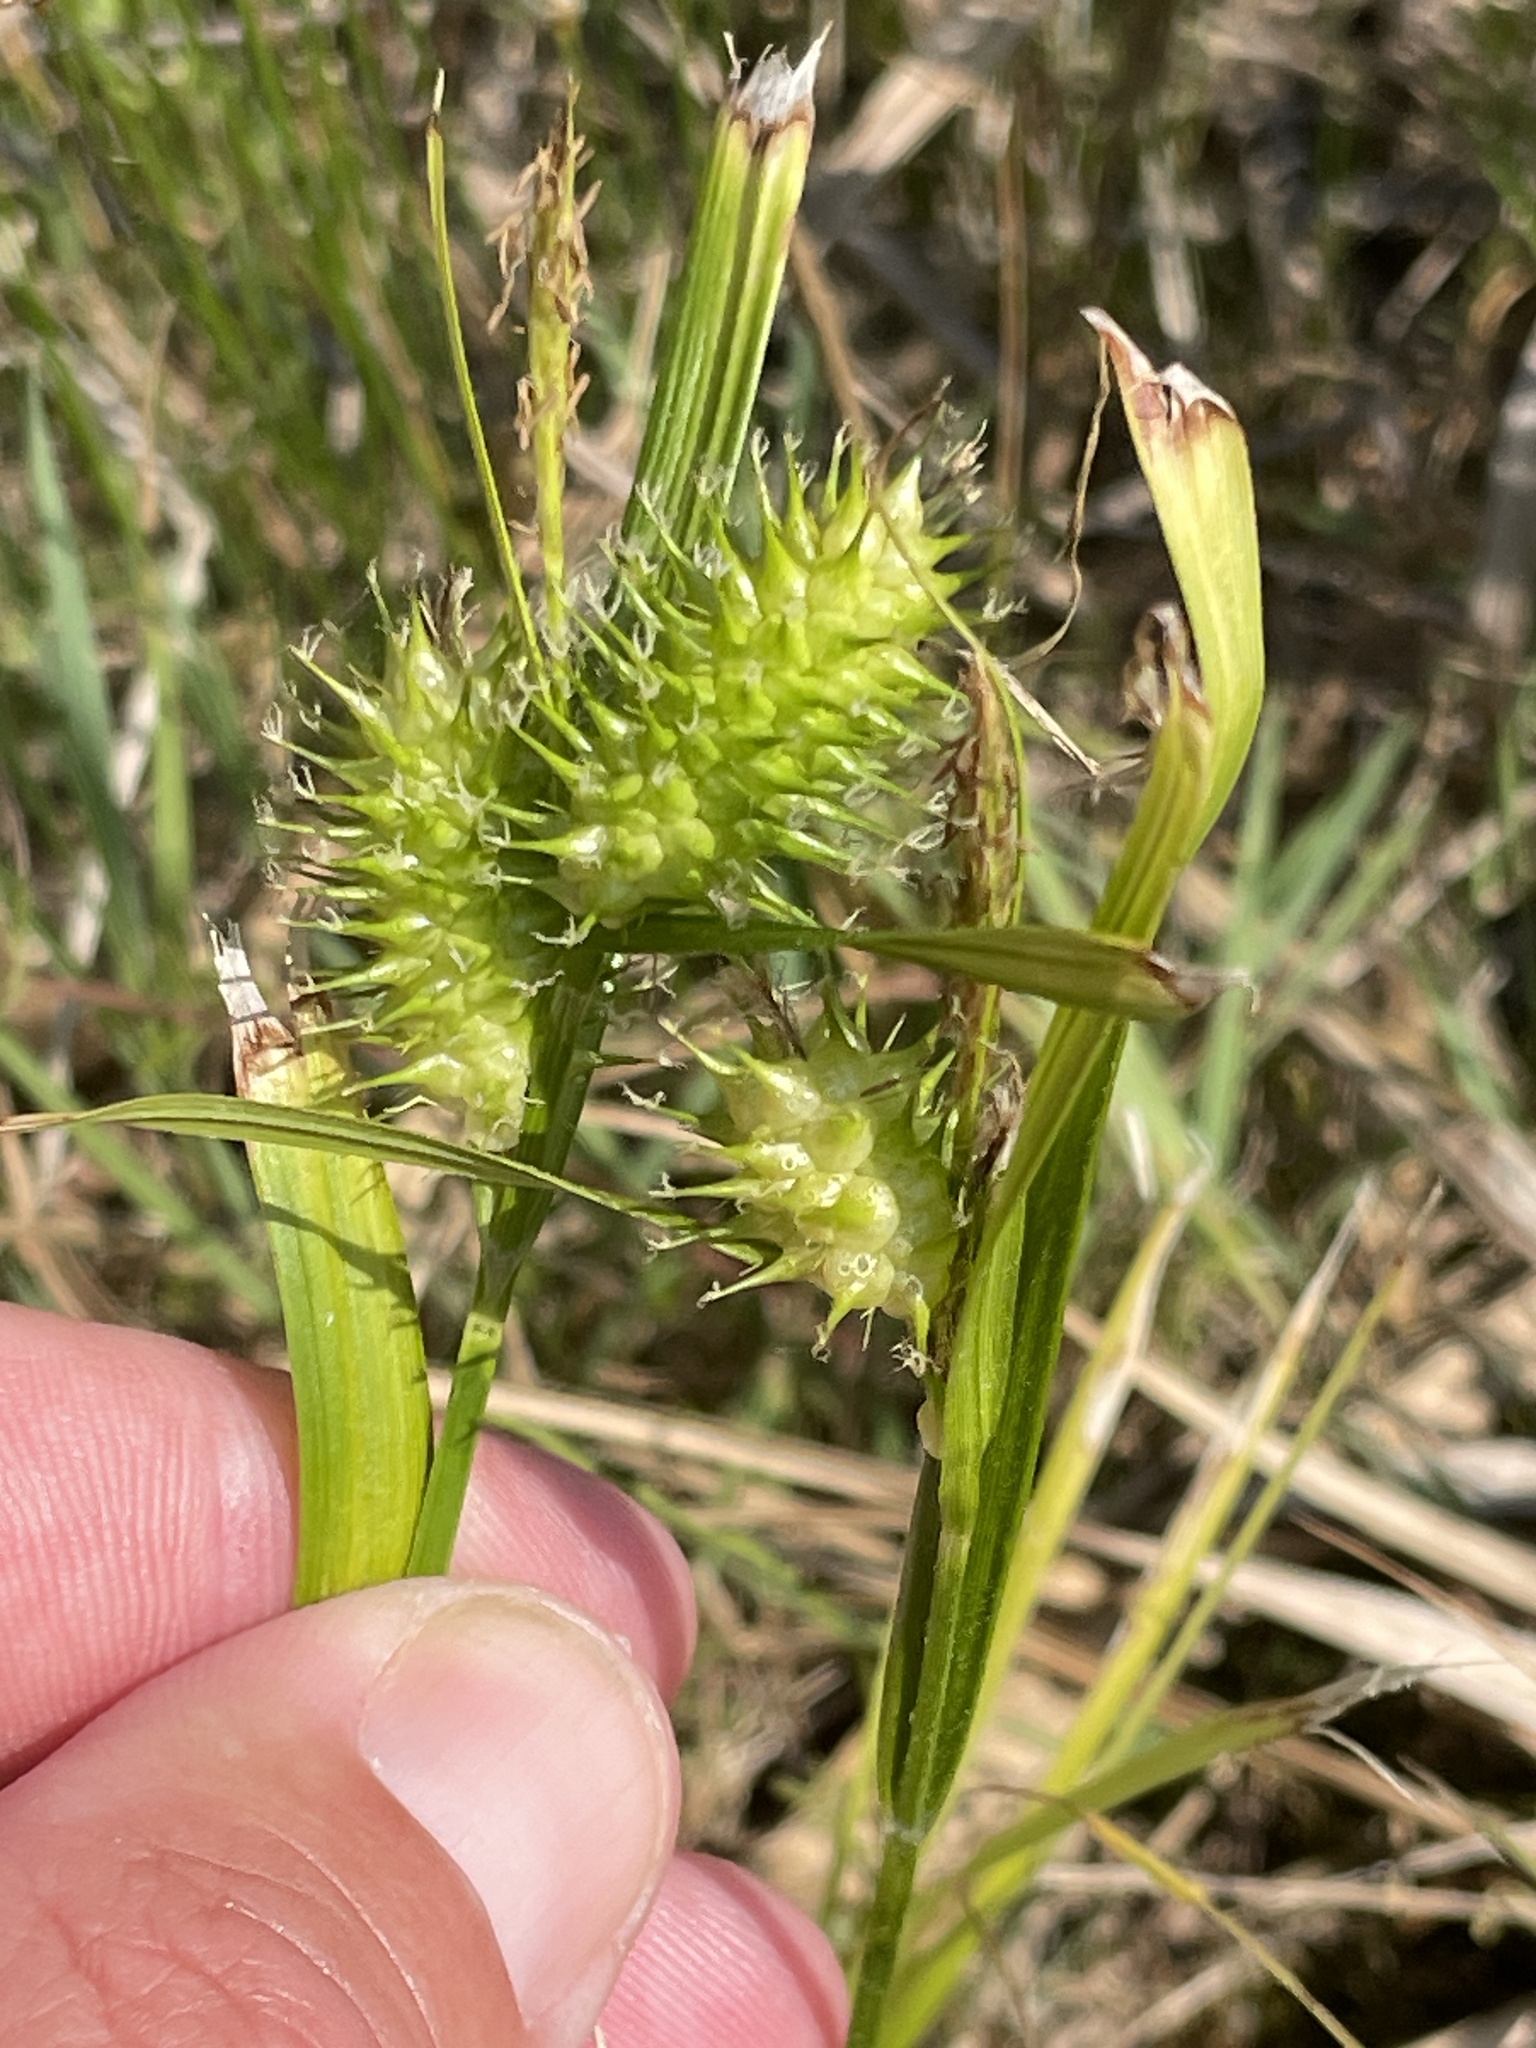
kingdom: Plantae
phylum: Tracheophyta
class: Liliopsida
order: Poales
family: Cyperaceae
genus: Carex
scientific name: Carex lurida
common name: Sallow sedge
